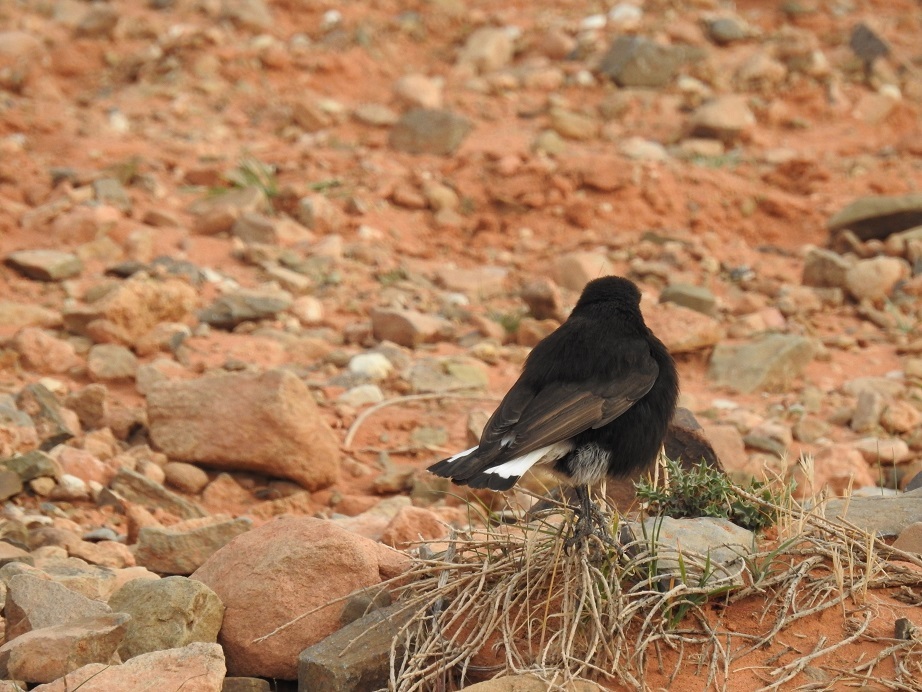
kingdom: Animalia
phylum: Chordata
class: Aves
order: Passeriformes
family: Muscicapidae
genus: Oenanthe
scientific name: Oenanthe leucura
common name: Black wheatear
